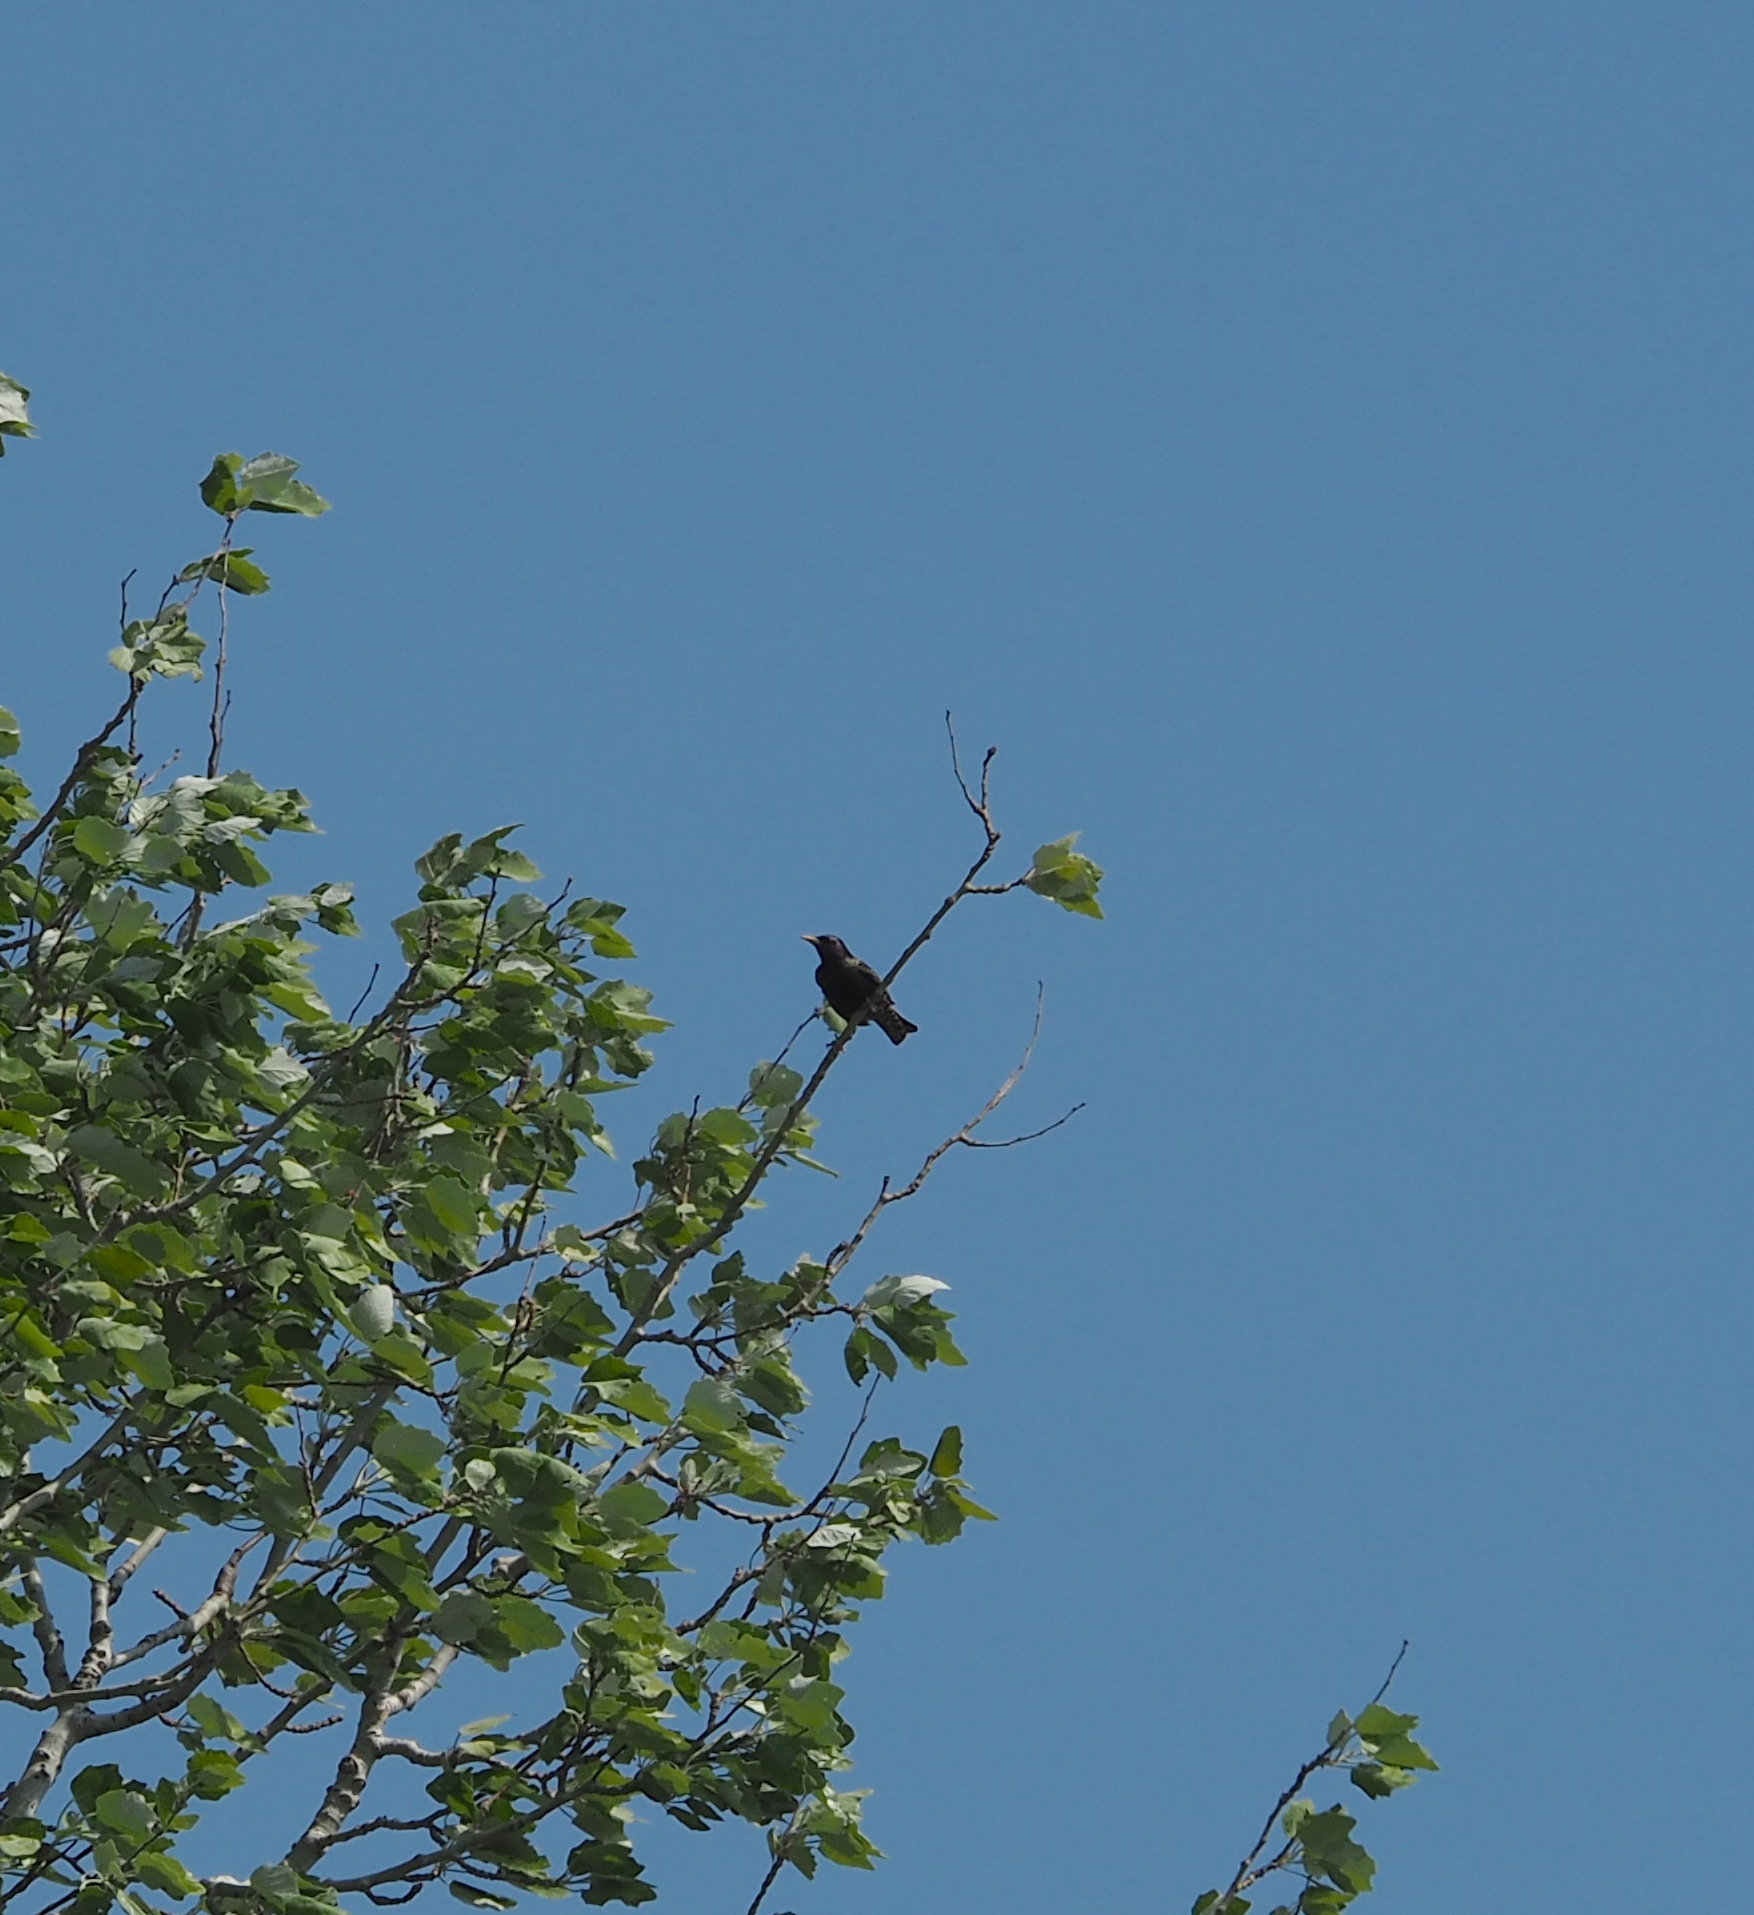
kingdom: Animalia
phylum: Chordata
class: Aves
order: Passeriformes
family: Sturnidae
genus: Sturnus
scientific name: Sturnus vulgaris
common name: Common starling
